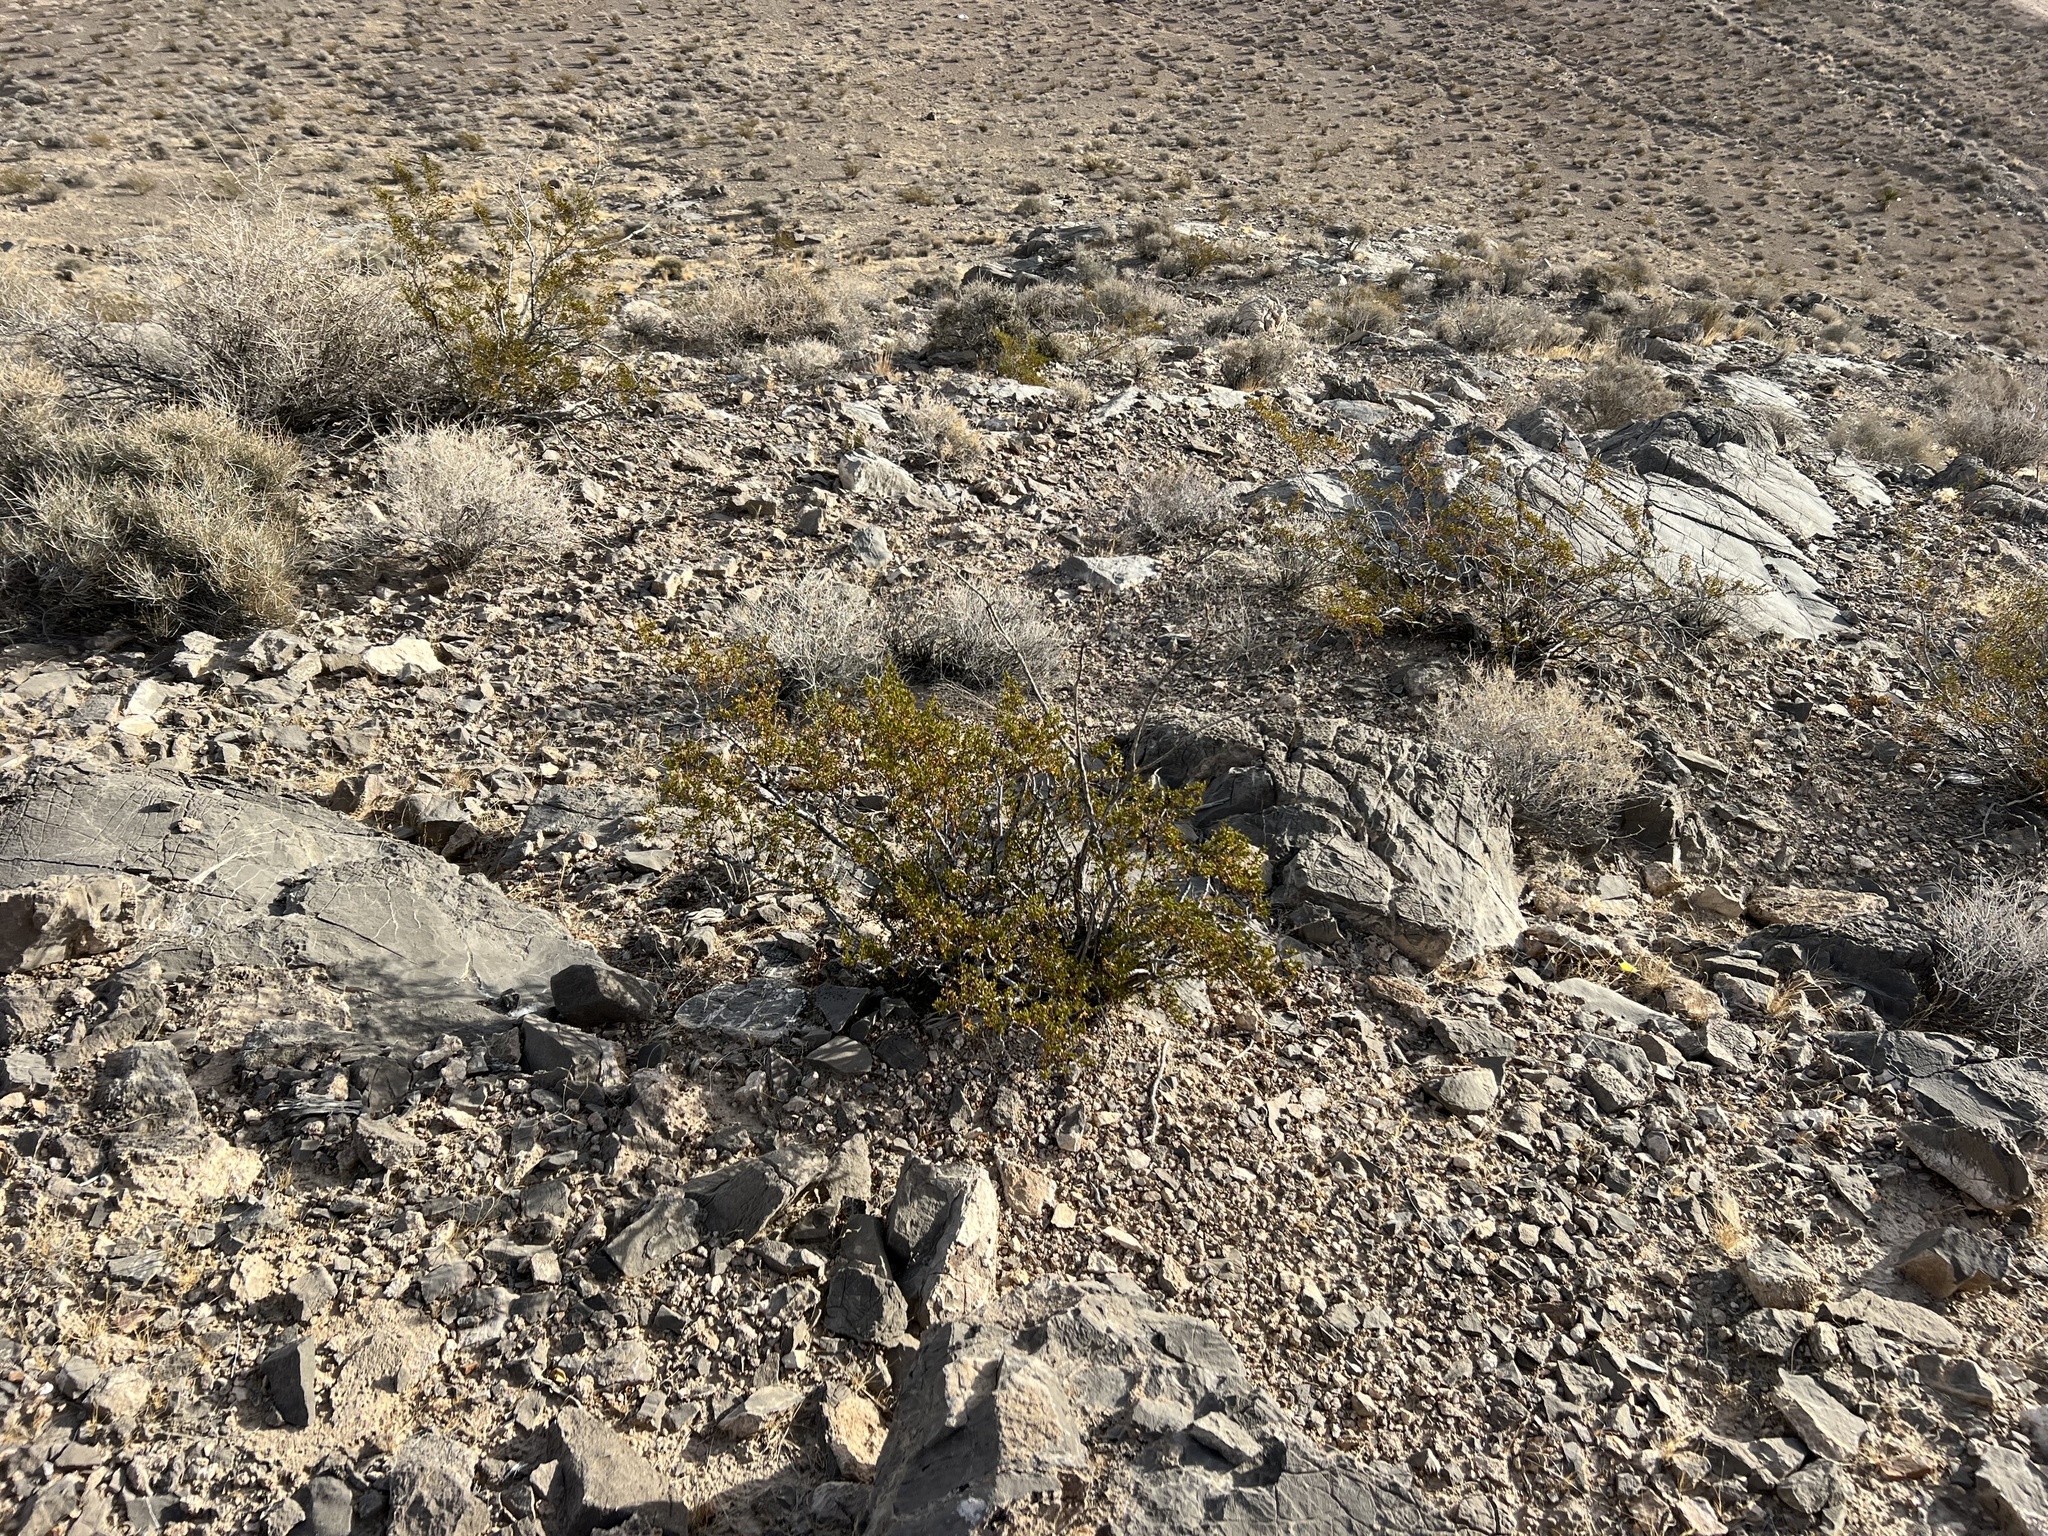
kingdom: Plantae
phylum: Tracheophyta
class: Magnoliopsida
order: Zygophyllales
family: Zygophyllaceae
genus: Larrea
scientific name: Larrea tridentata
